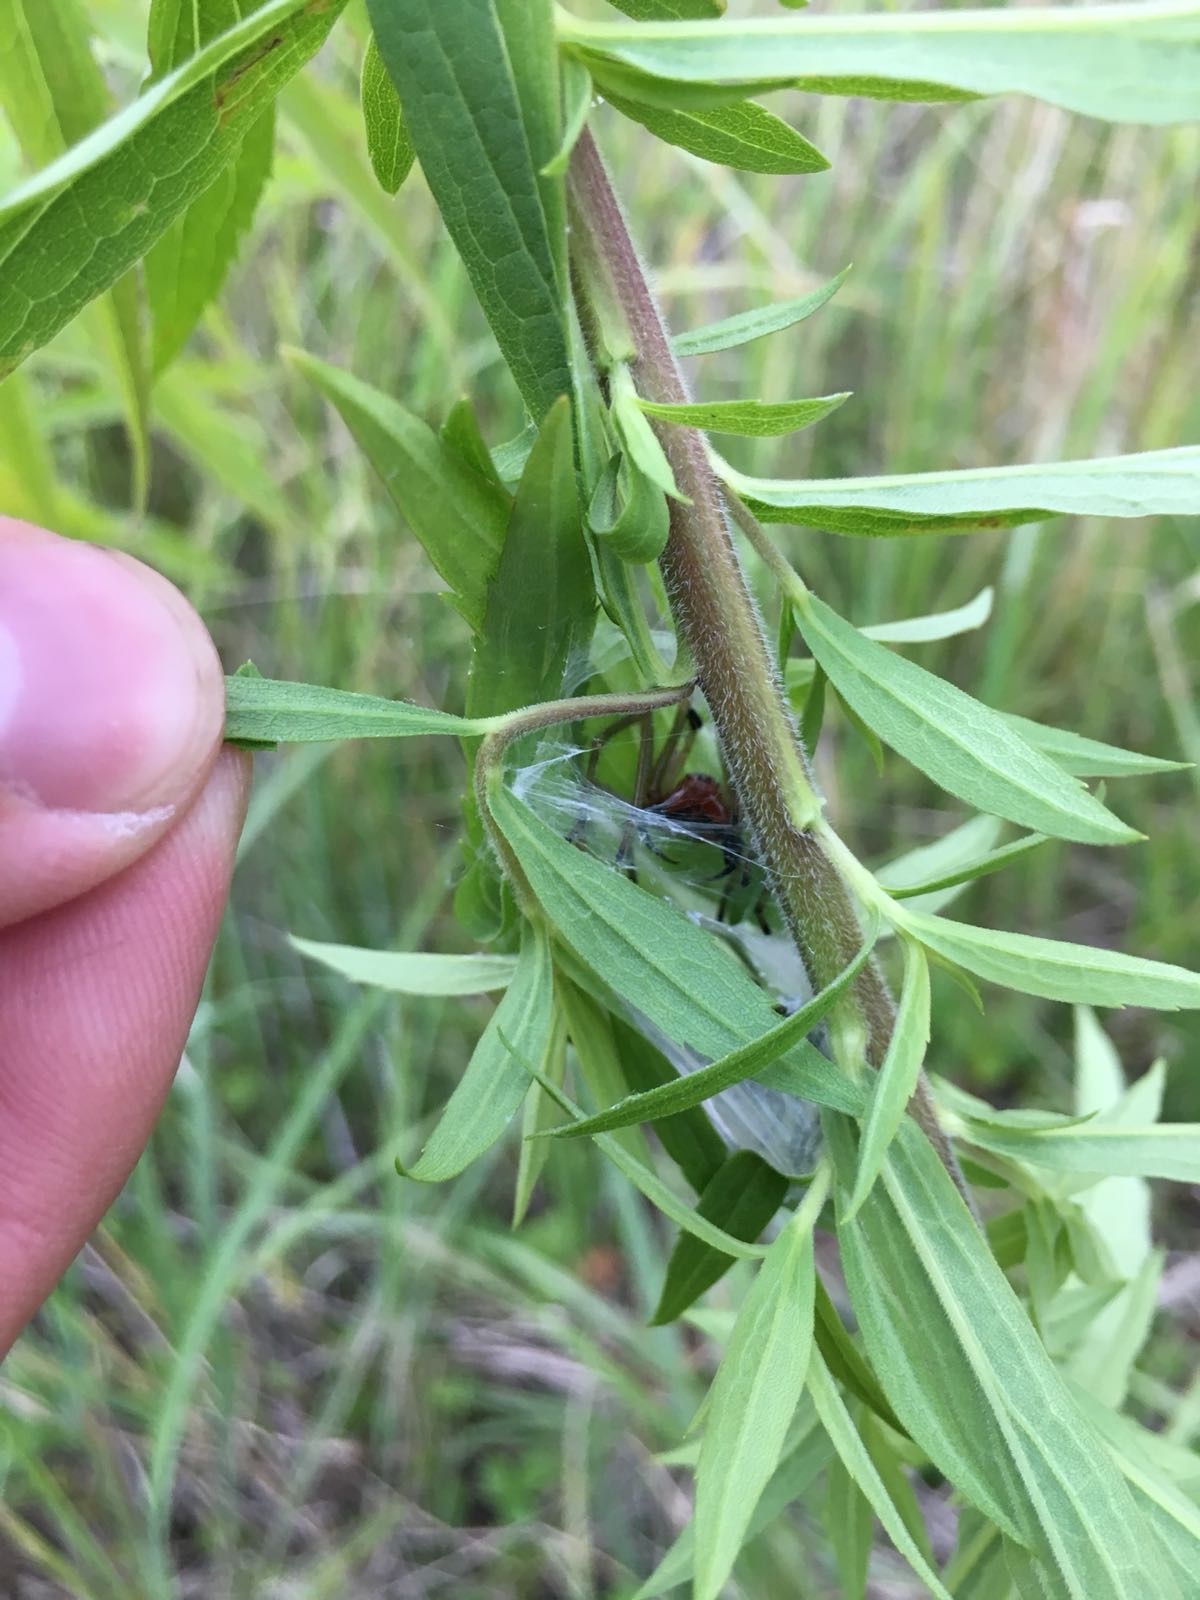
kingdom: Animalia
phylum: Arthropoda
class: Arachnida
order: Araneae
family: Cheiracanthiidae
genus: Cheiracanthium
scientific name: Cheiracanthium punctorium
